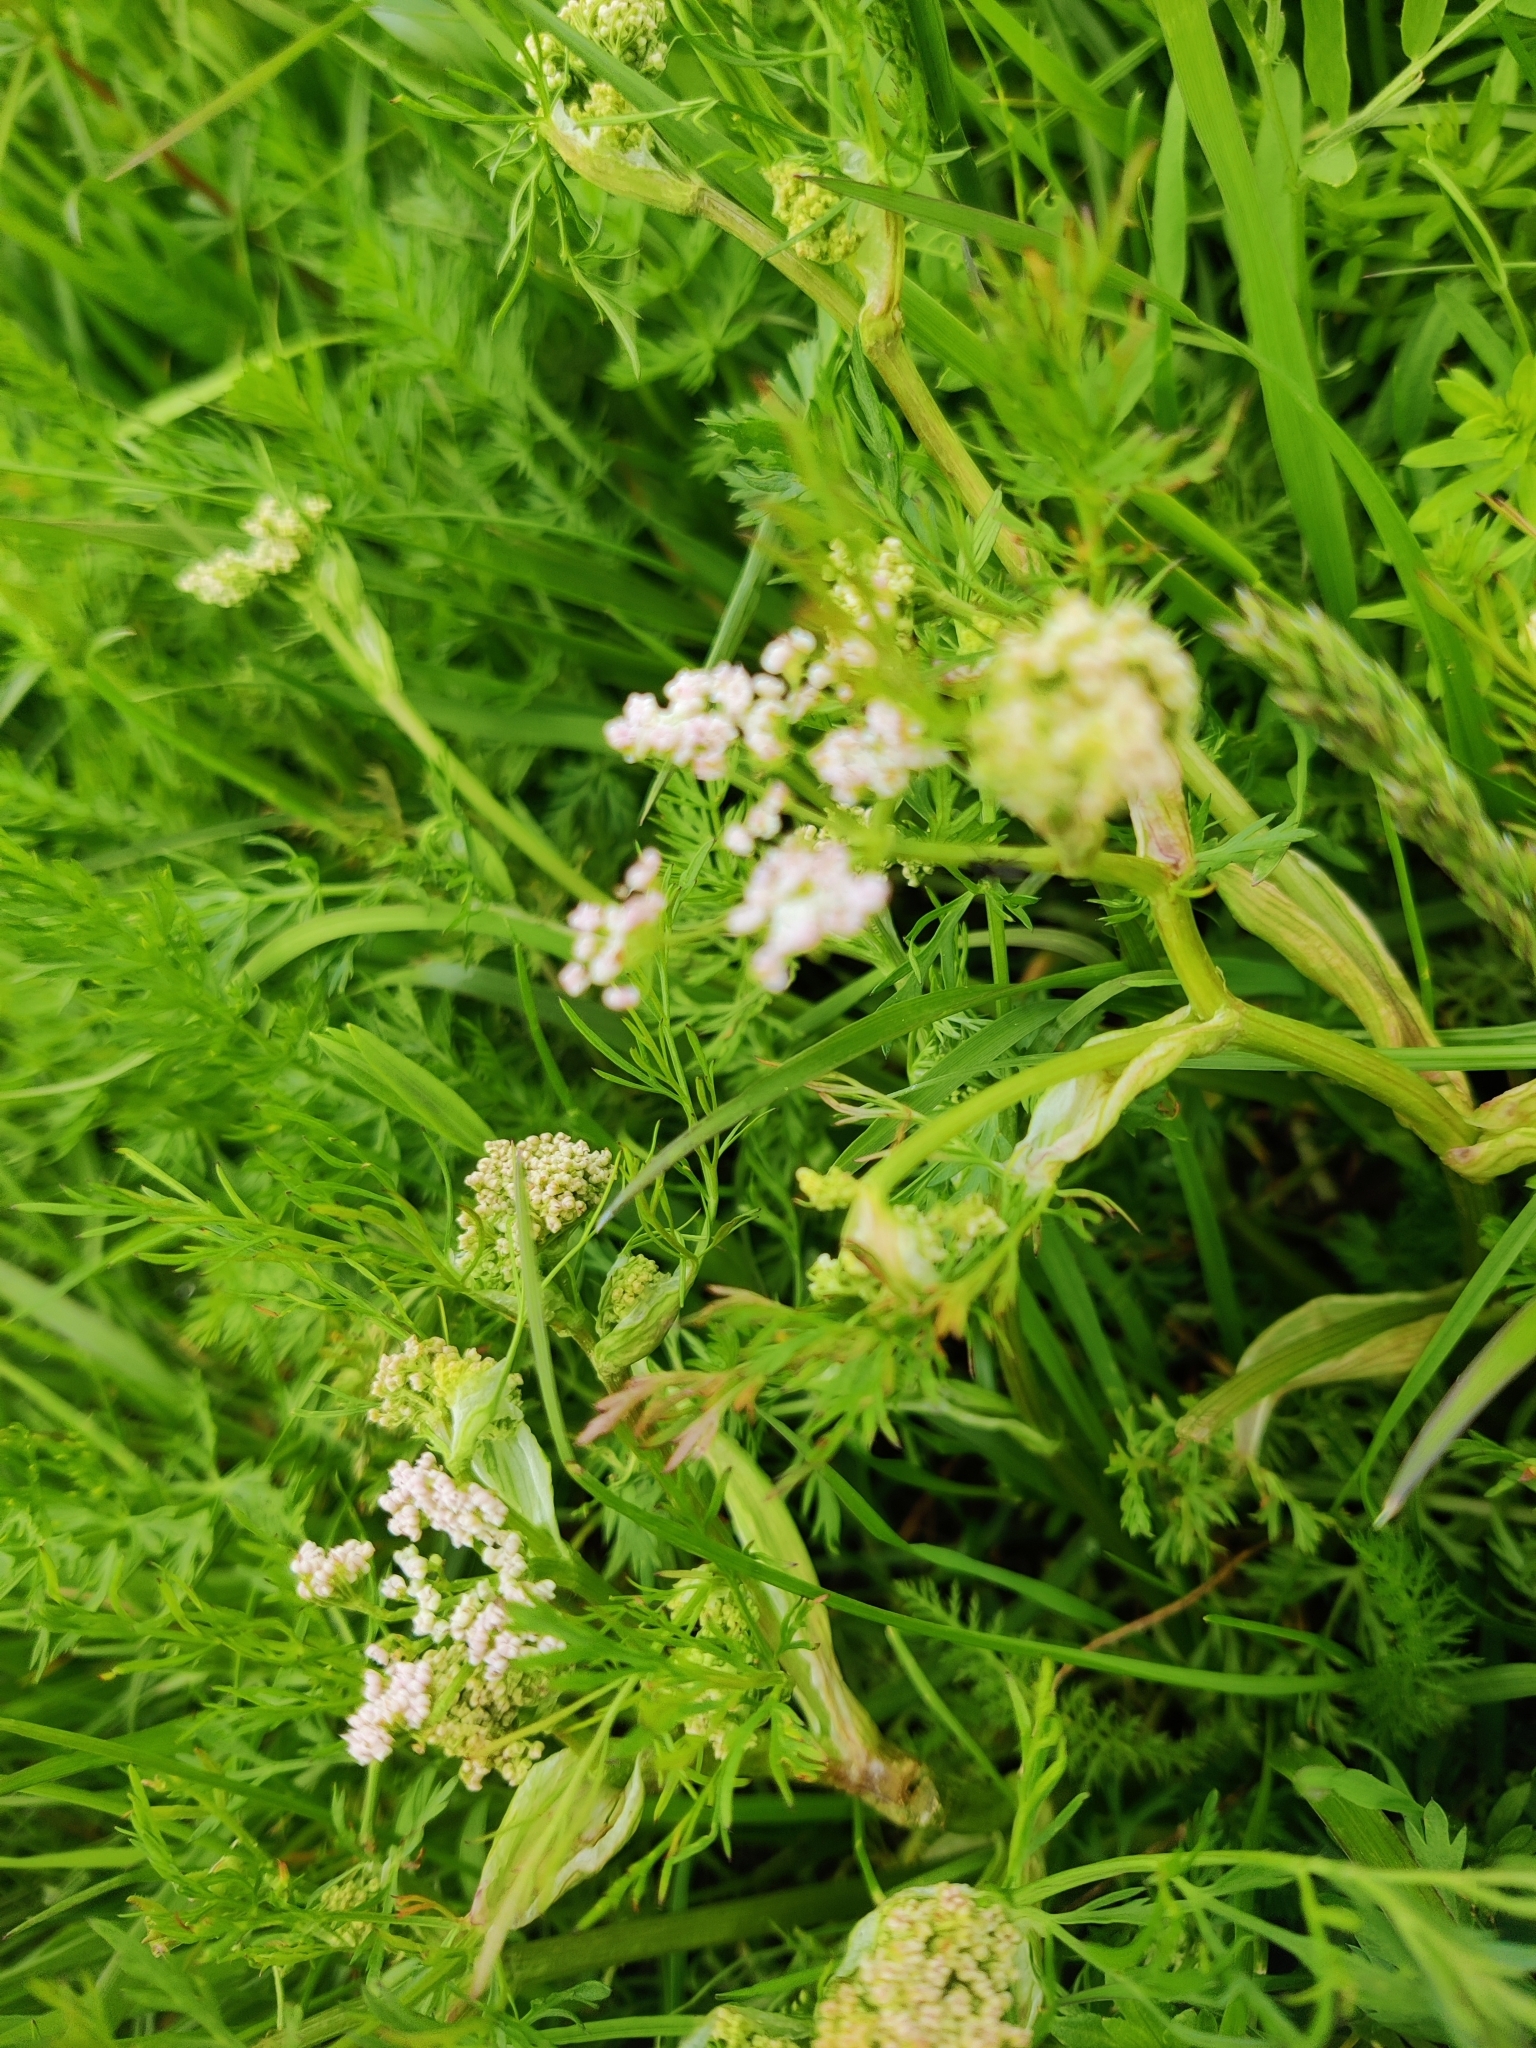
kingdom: Plantae
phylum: Tracheophyta
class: Magnoliopsida
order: Apiales
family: Apiaceae
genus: Carum
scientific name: Carum carvi
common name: Caraway
